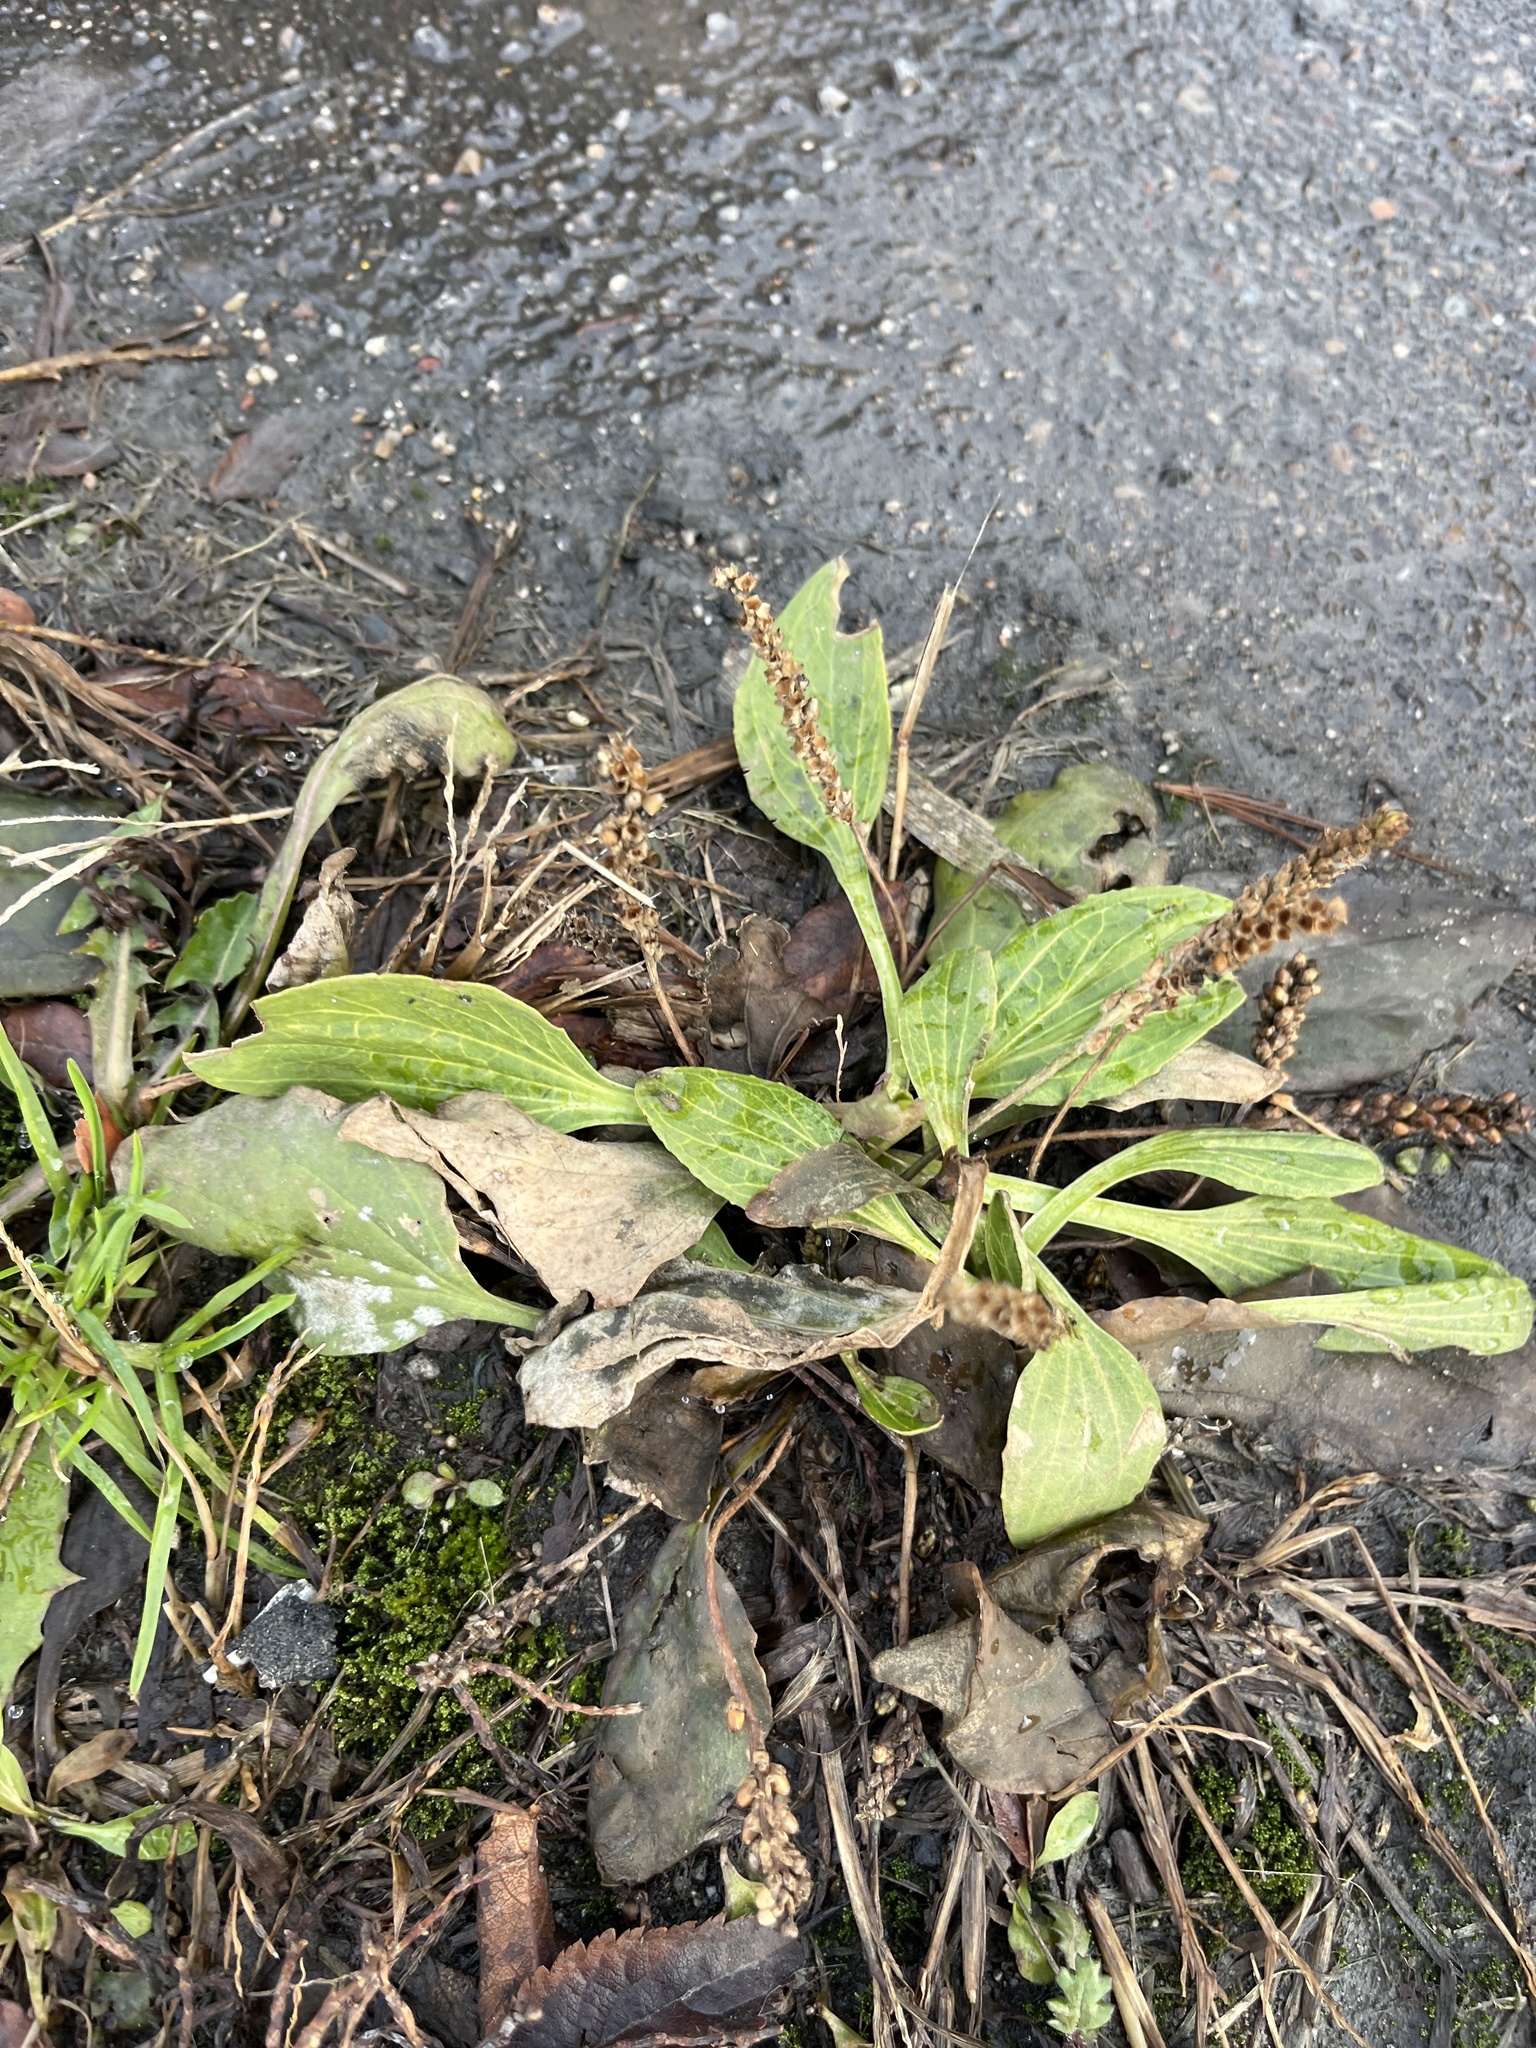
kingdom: Plantae
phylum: Tracheophyta
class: Magnoliopsida
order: Lamiales
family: Plantaginaceae
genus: Plantago
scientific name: Plantago major
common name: Common plantain
